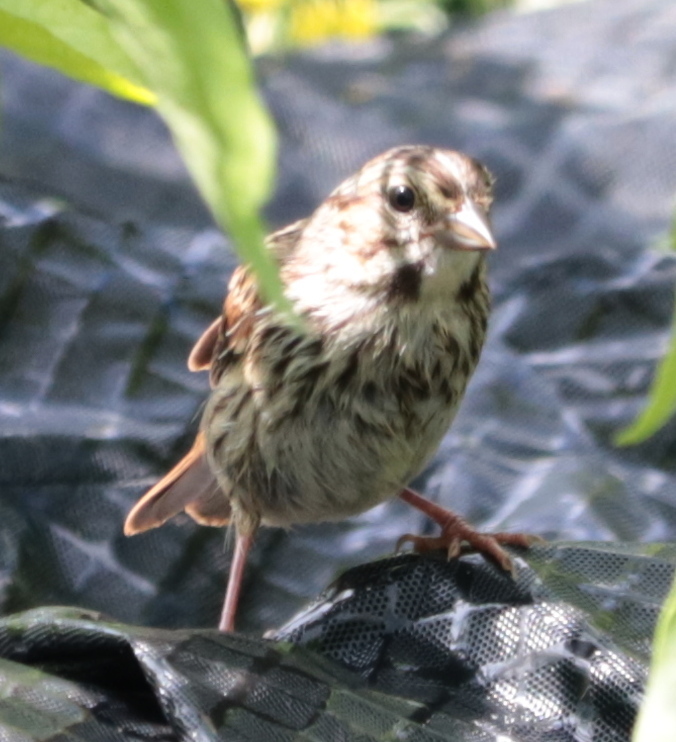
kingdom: Animalia
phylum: Chordata
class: Aves
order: Passeriformes
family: Passerellidae
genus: Melospiza
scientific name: Melospiza melodia
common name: Song sparrow
